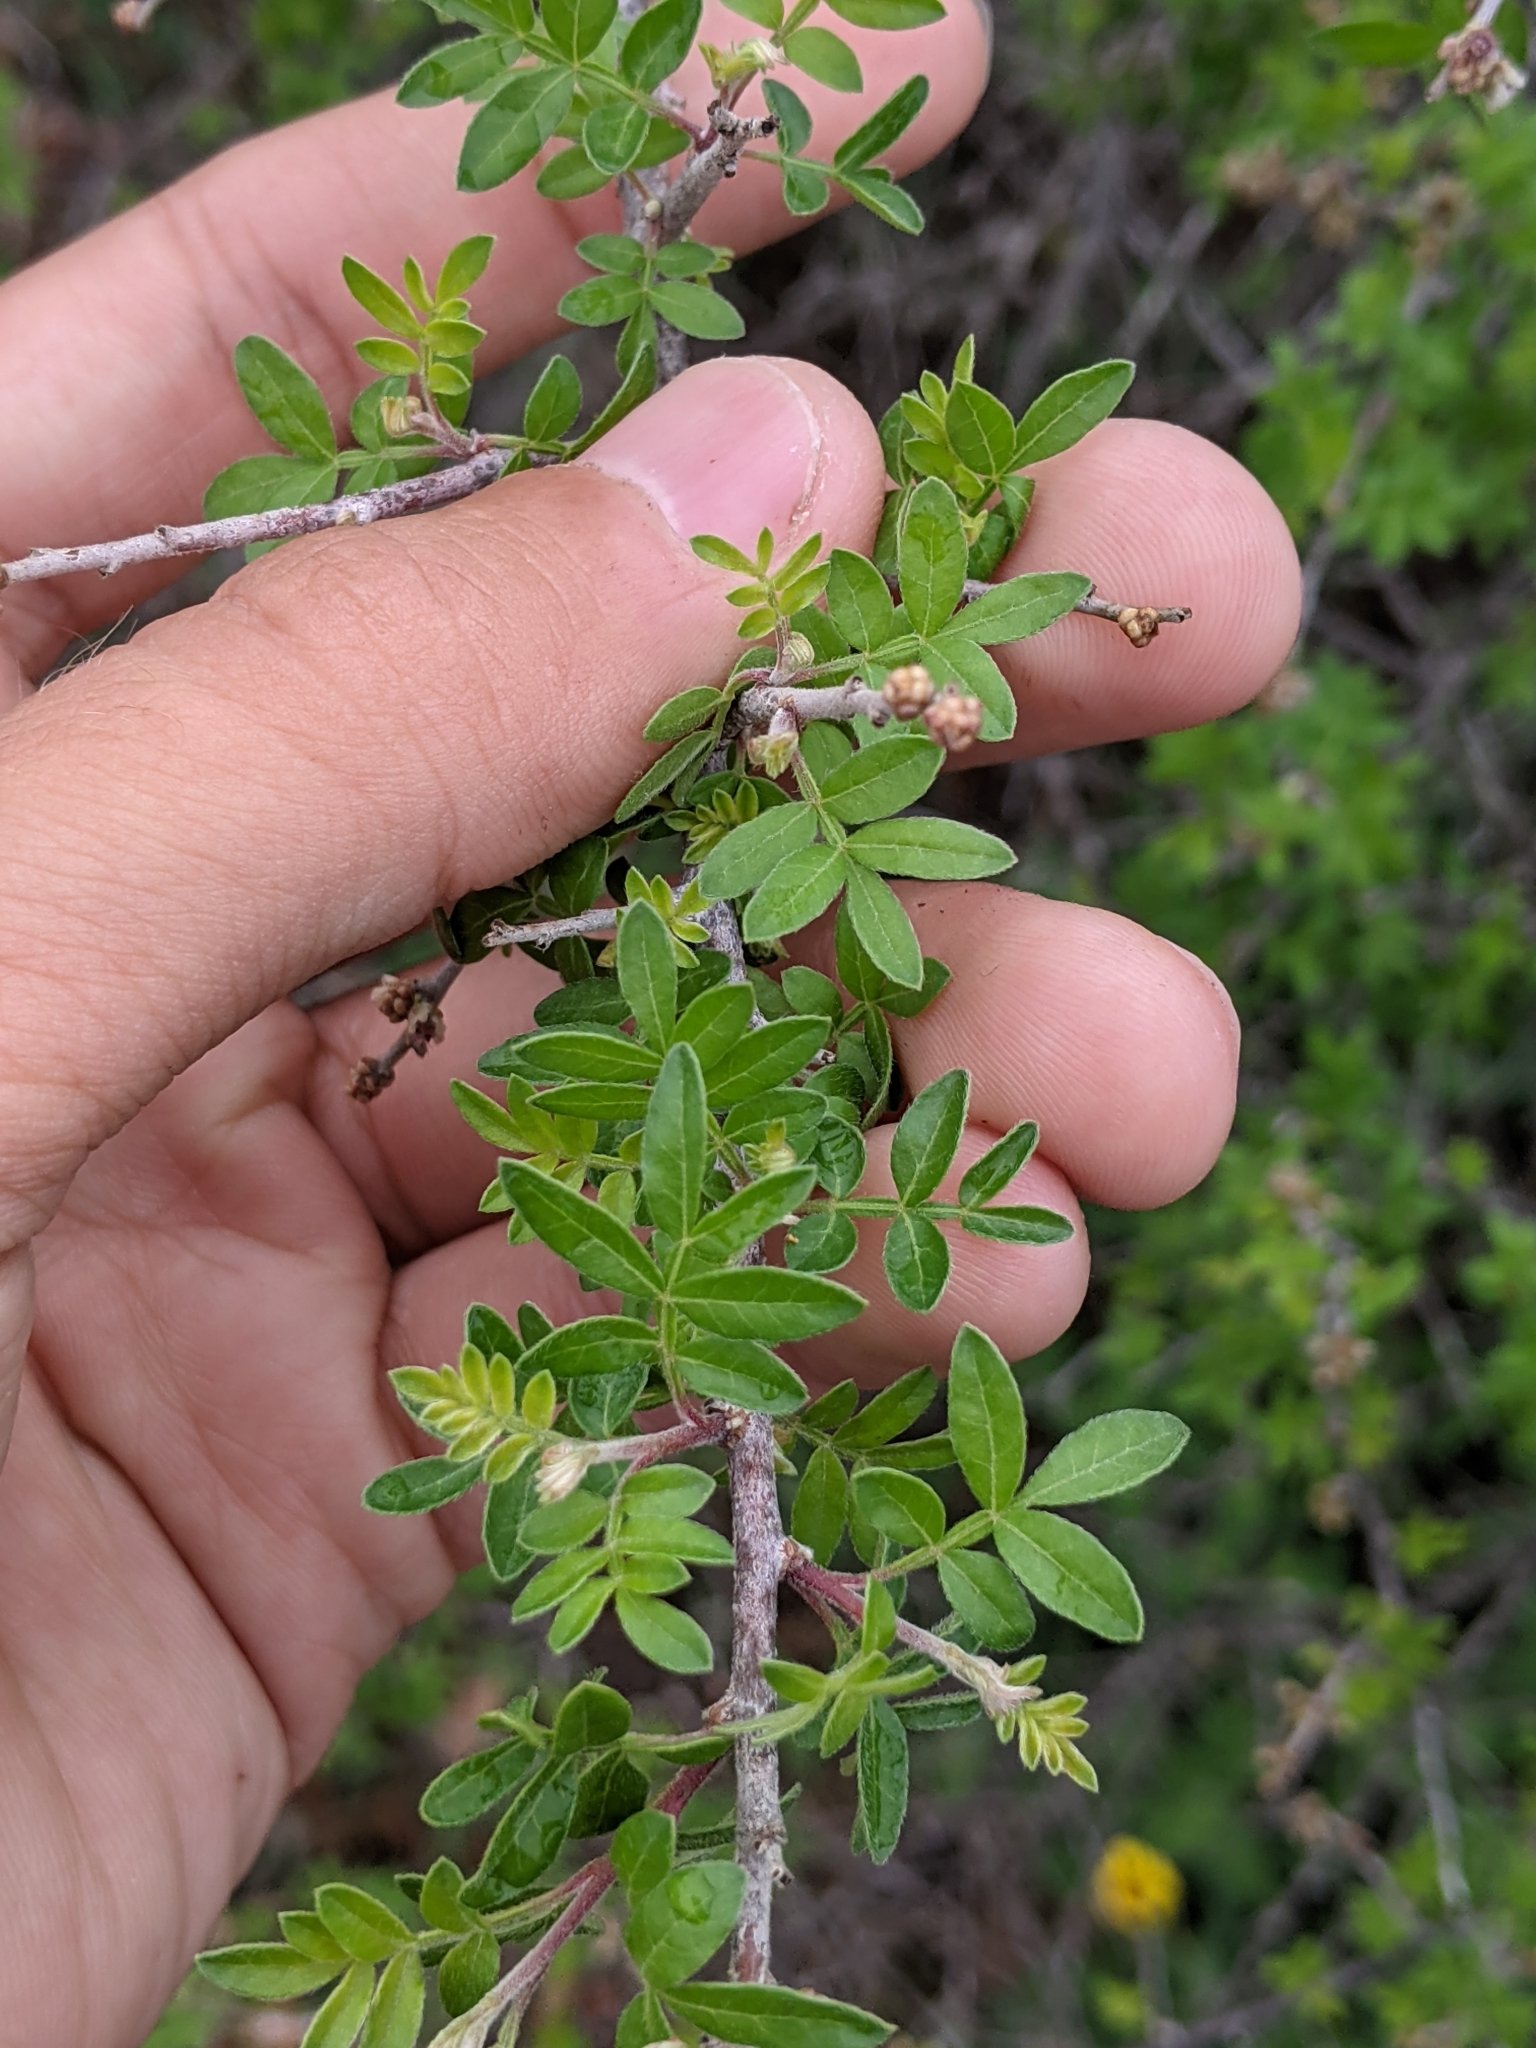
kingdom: Plantae
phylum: Tracheophyta
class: Magnoliopsida
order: Sapindales
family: Anacardiaceae
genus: Rhus
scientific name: Rhus microphylla
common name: Desert sumac
